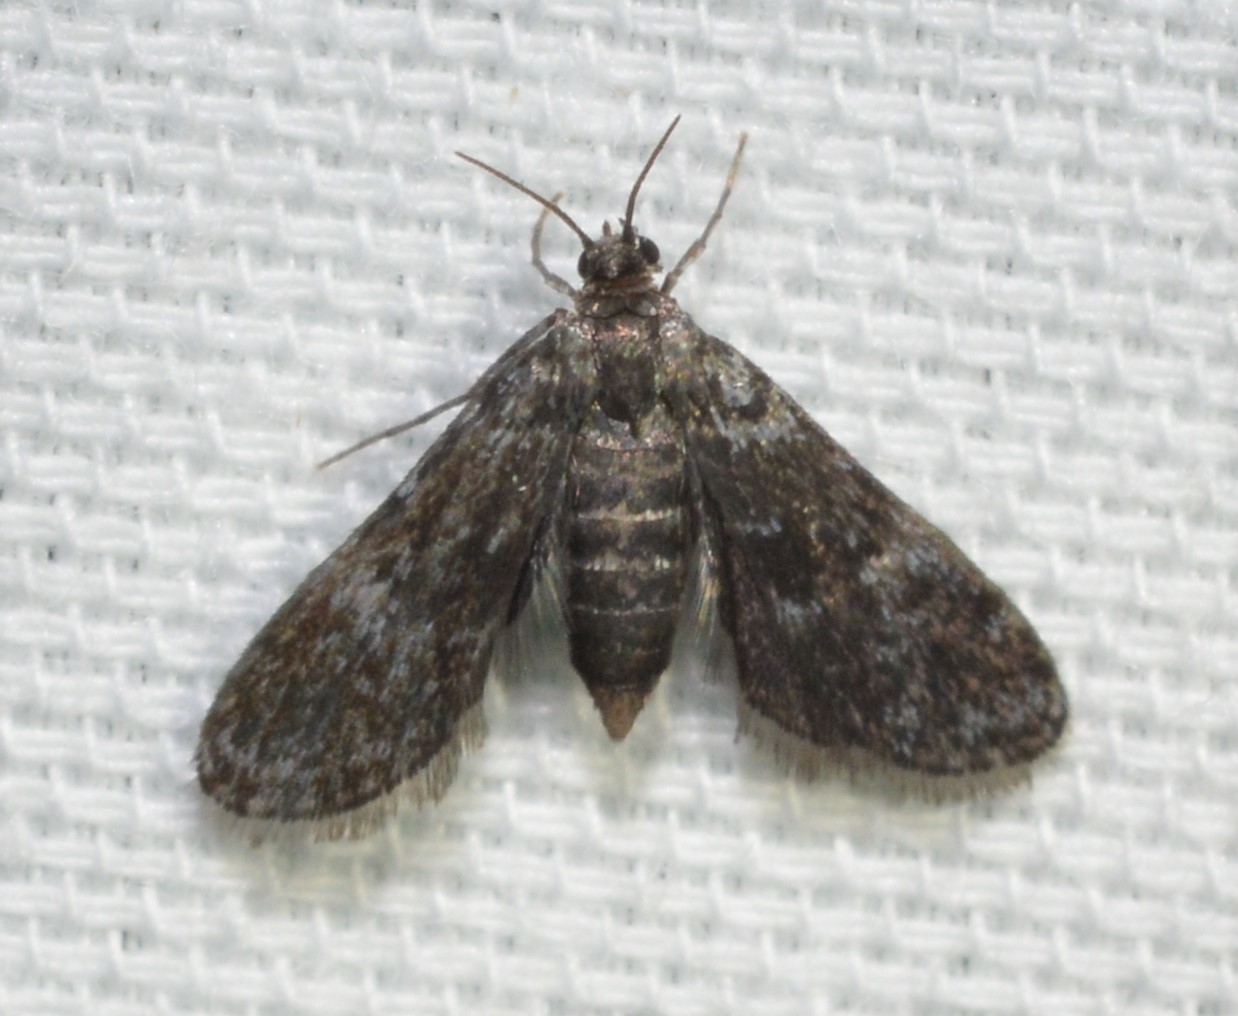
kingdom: Animalia
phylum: Arthropoda
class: Insecta
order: Lepidoptera
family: Crambidae
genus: Elophila
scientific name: Elophila tinealis
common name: Black duckweed moth
